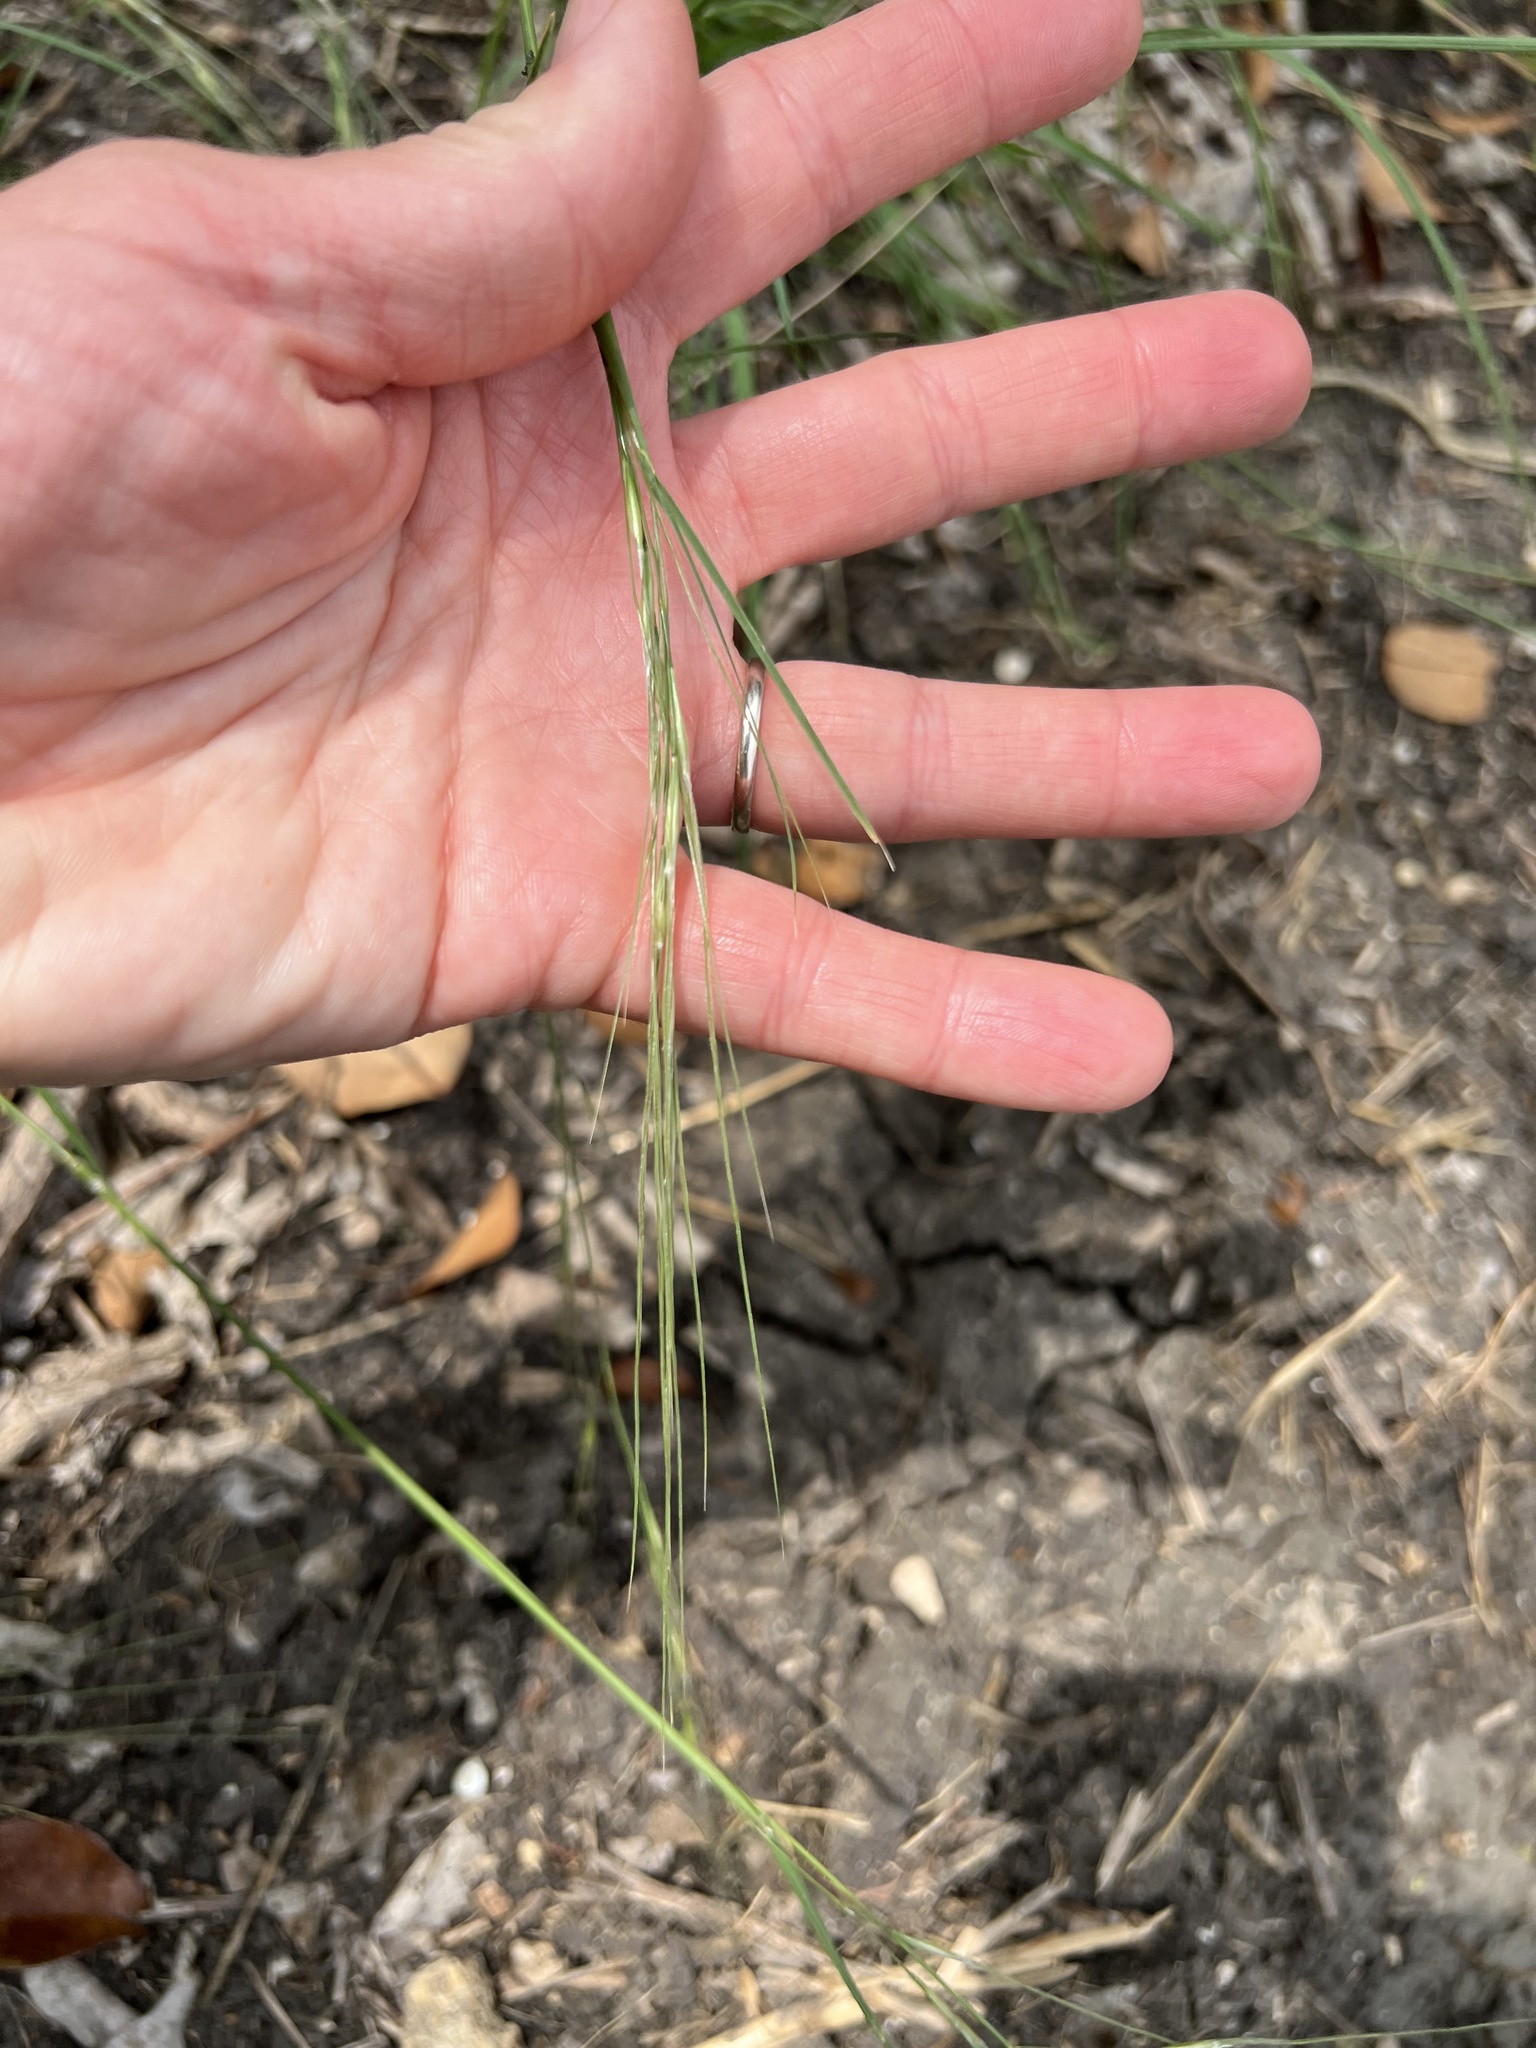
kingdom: Plantae
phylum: Tracheophyta
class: Liliopsida
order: Poales
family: Poaceae
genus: Nassella
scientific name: Nassella leucotricha
